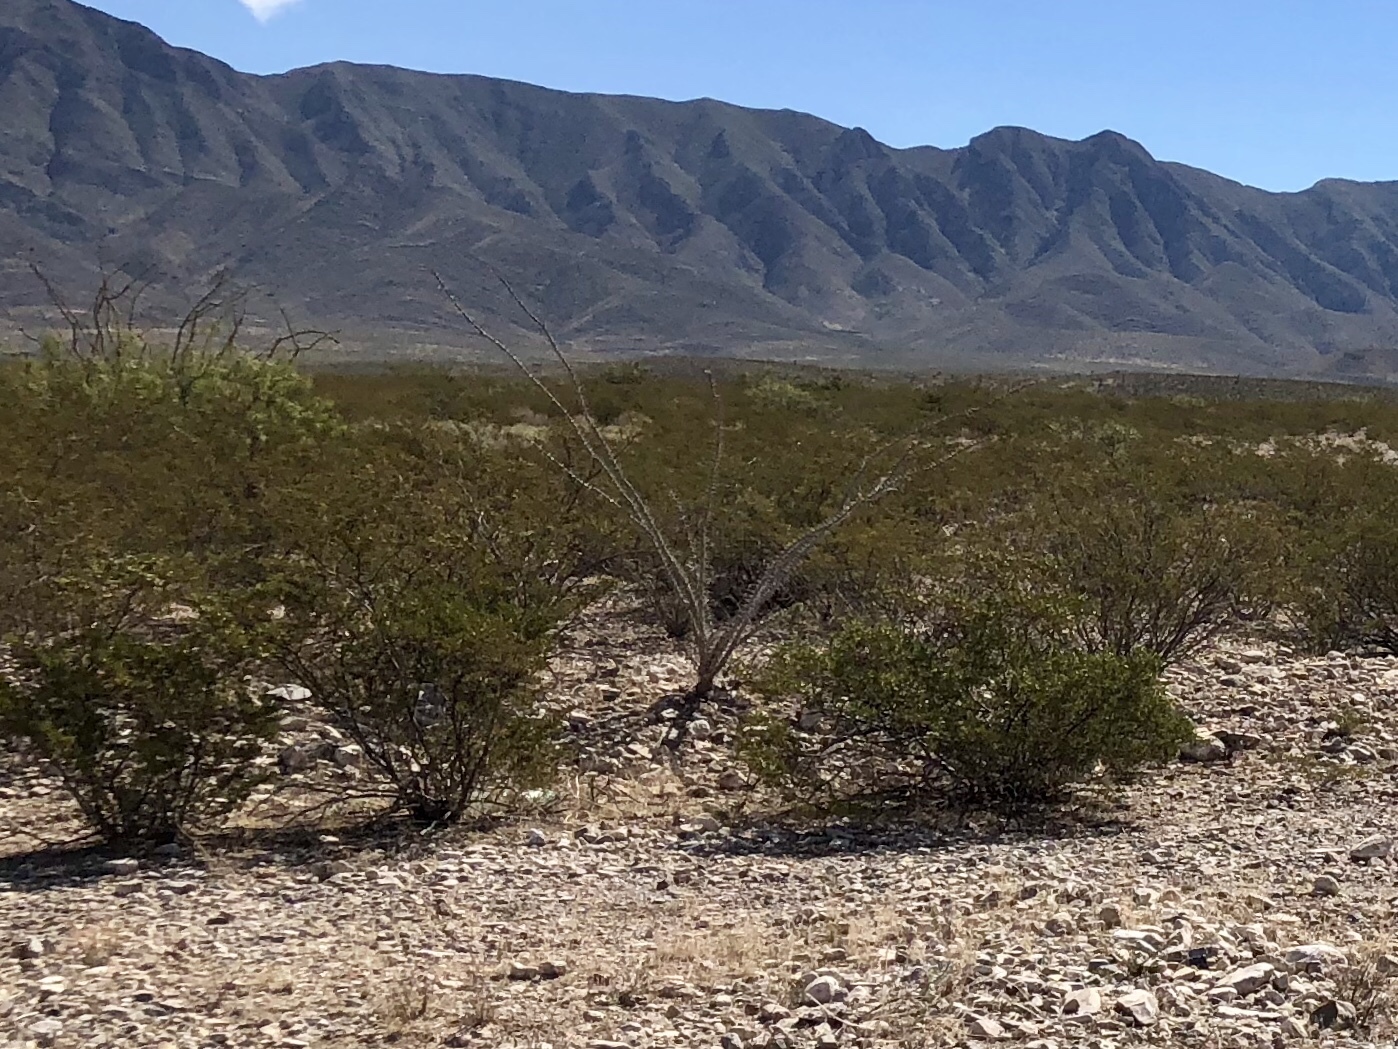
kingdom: Plantae
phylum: Tracheophyta
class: Magnoliopsida
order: Zygophyllales
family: Zygophyllaceae
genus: Larrea
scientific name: Larrea tridentata
